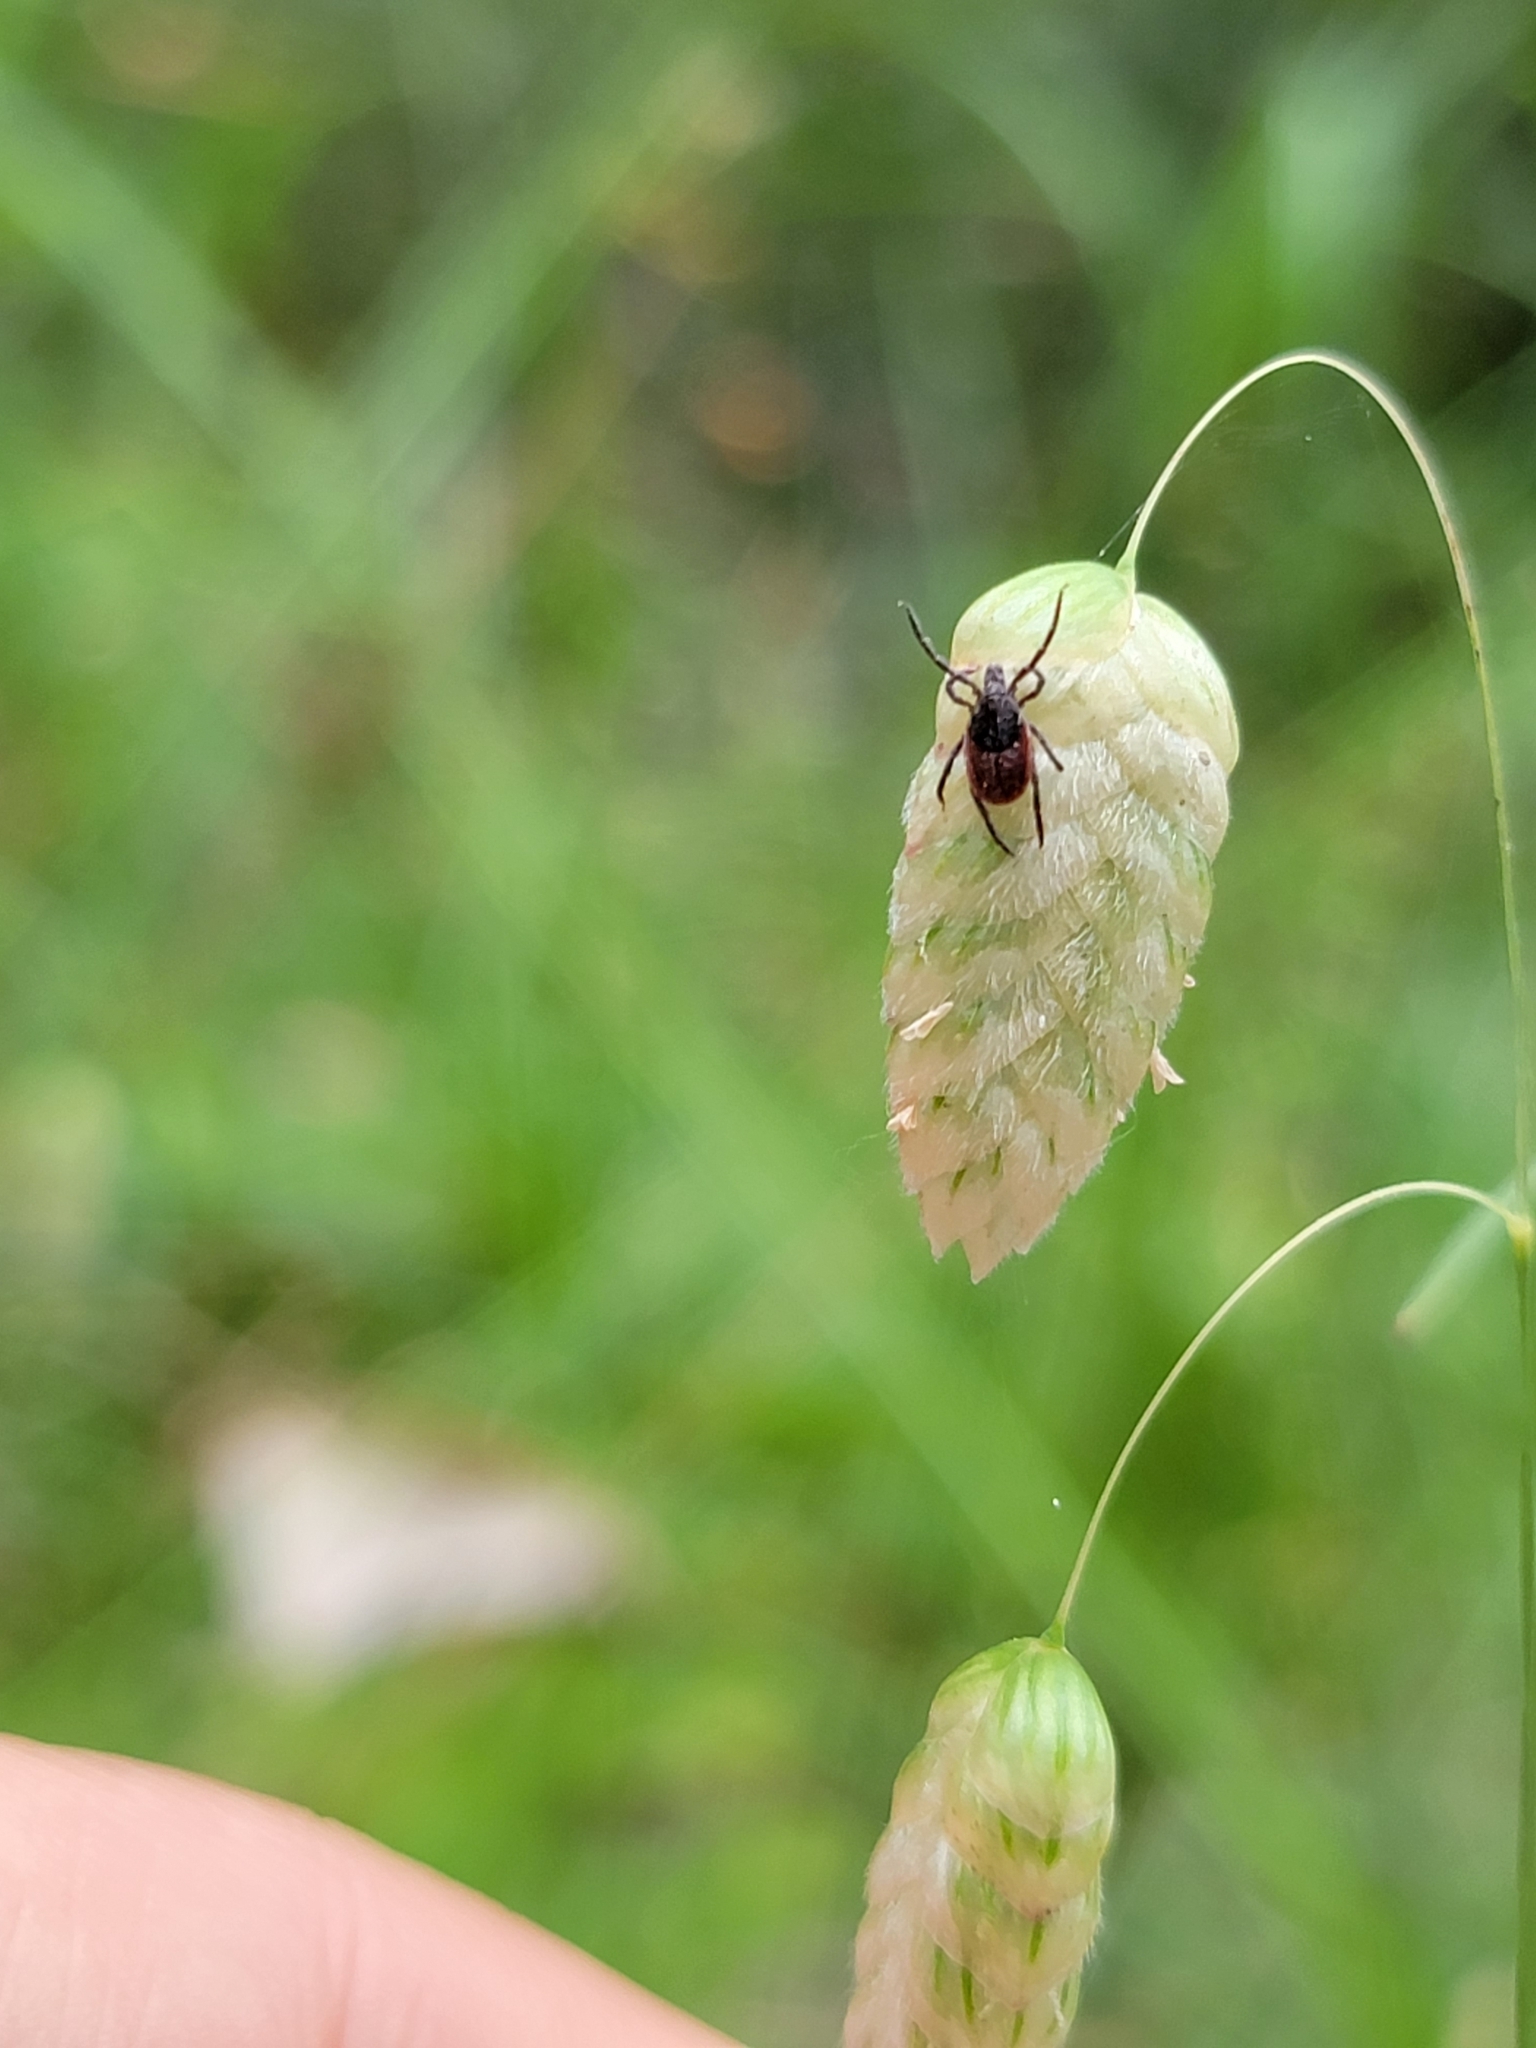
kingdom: Animalia
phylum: Arthropoda
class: Arachnida
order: Ixodida
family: Ixodidae
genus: Ixodes
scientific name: Ixodes pacificus
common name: California black-legged tick
